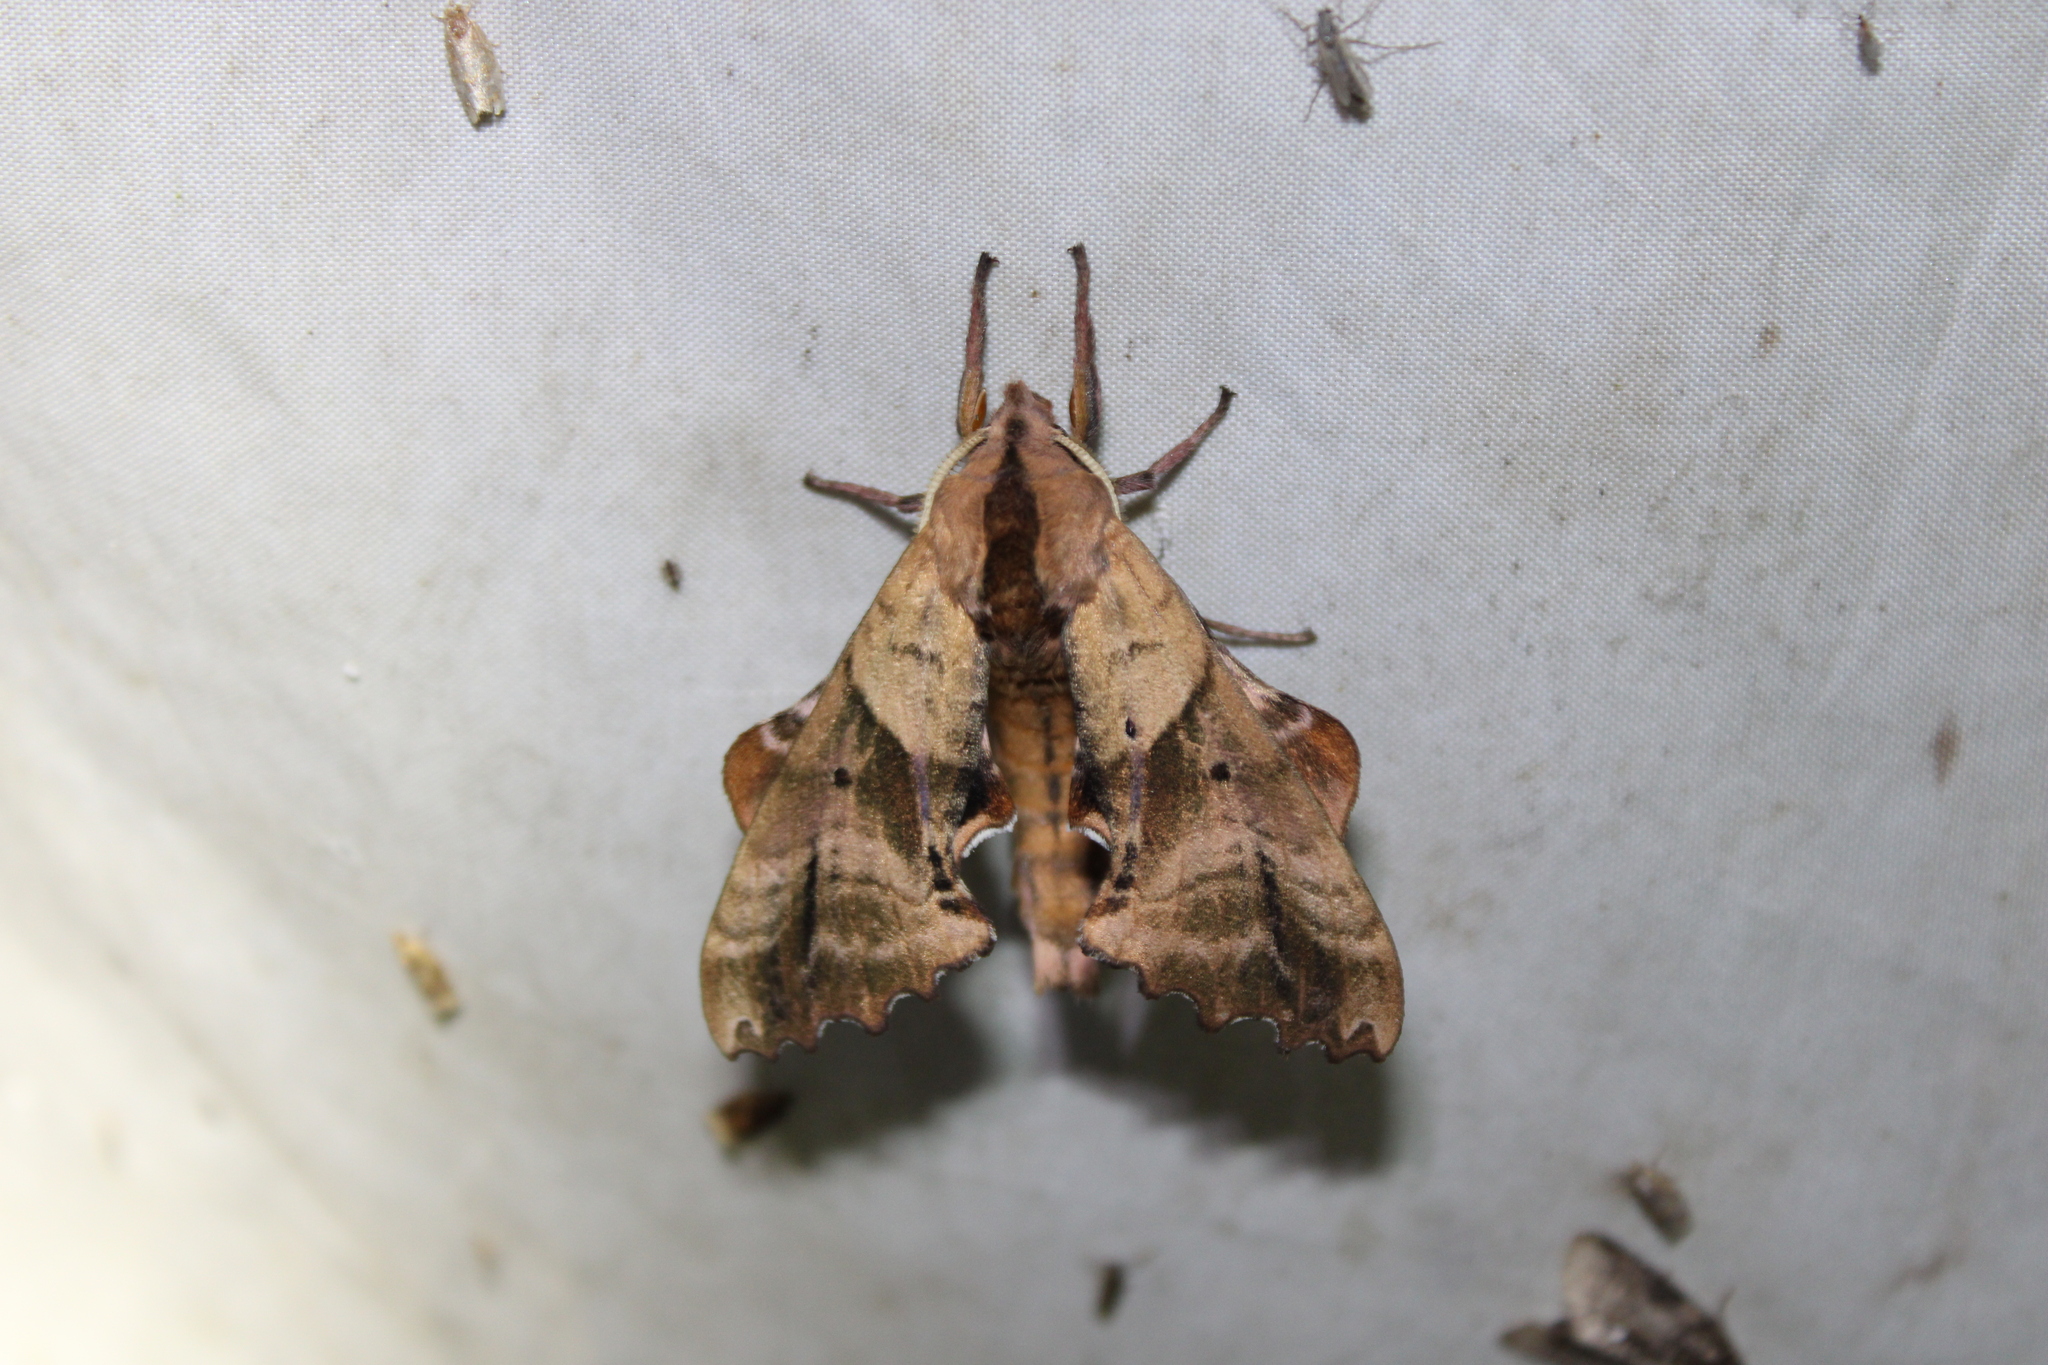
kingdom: Animalia
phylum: Arthropoda
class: Insecta
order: Lepidoptera
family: Sphingidae
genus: Paonias
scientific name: Paonias excaecata
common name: Blind-eyed sphinx
